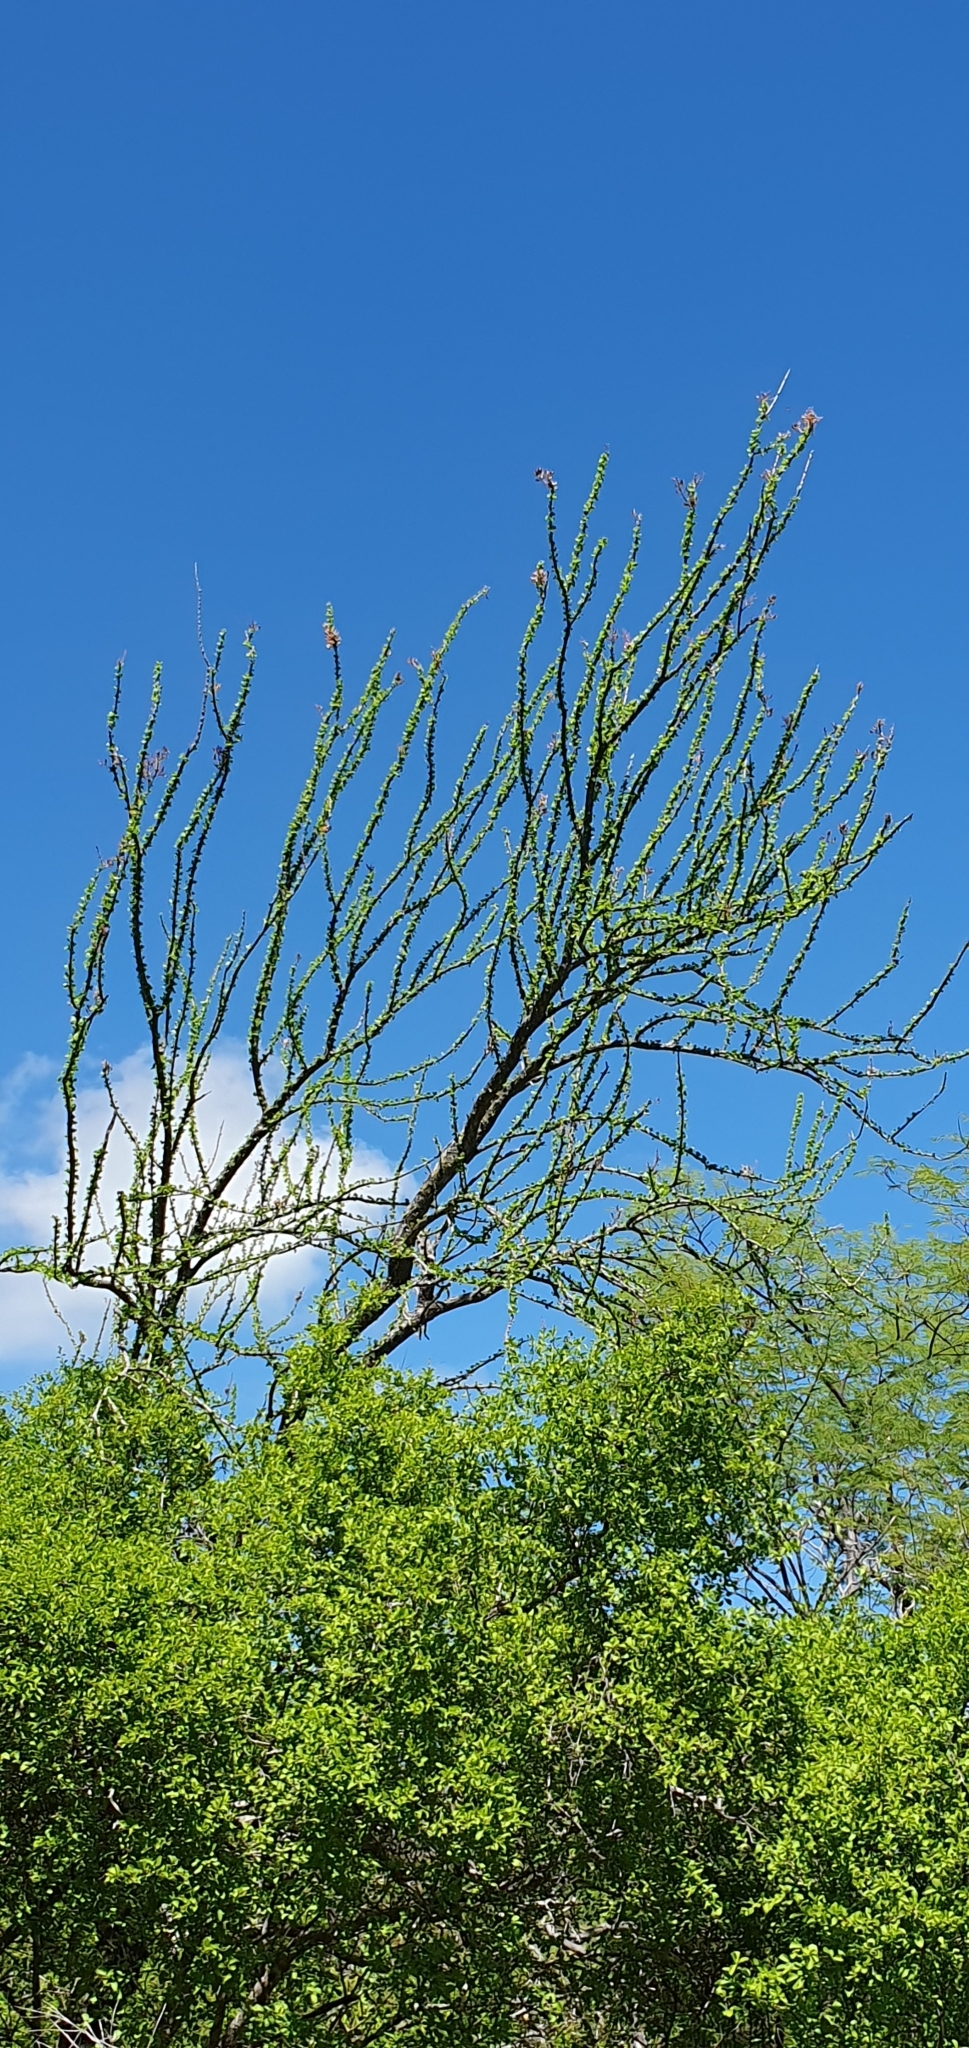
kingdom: Plantae
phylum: Tracheophyta
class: Magnoliopsida
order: Ericales
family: Fouquieriaceae
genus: Fouquieria
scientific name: Fouquieria diguetii
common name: Adam's tree
